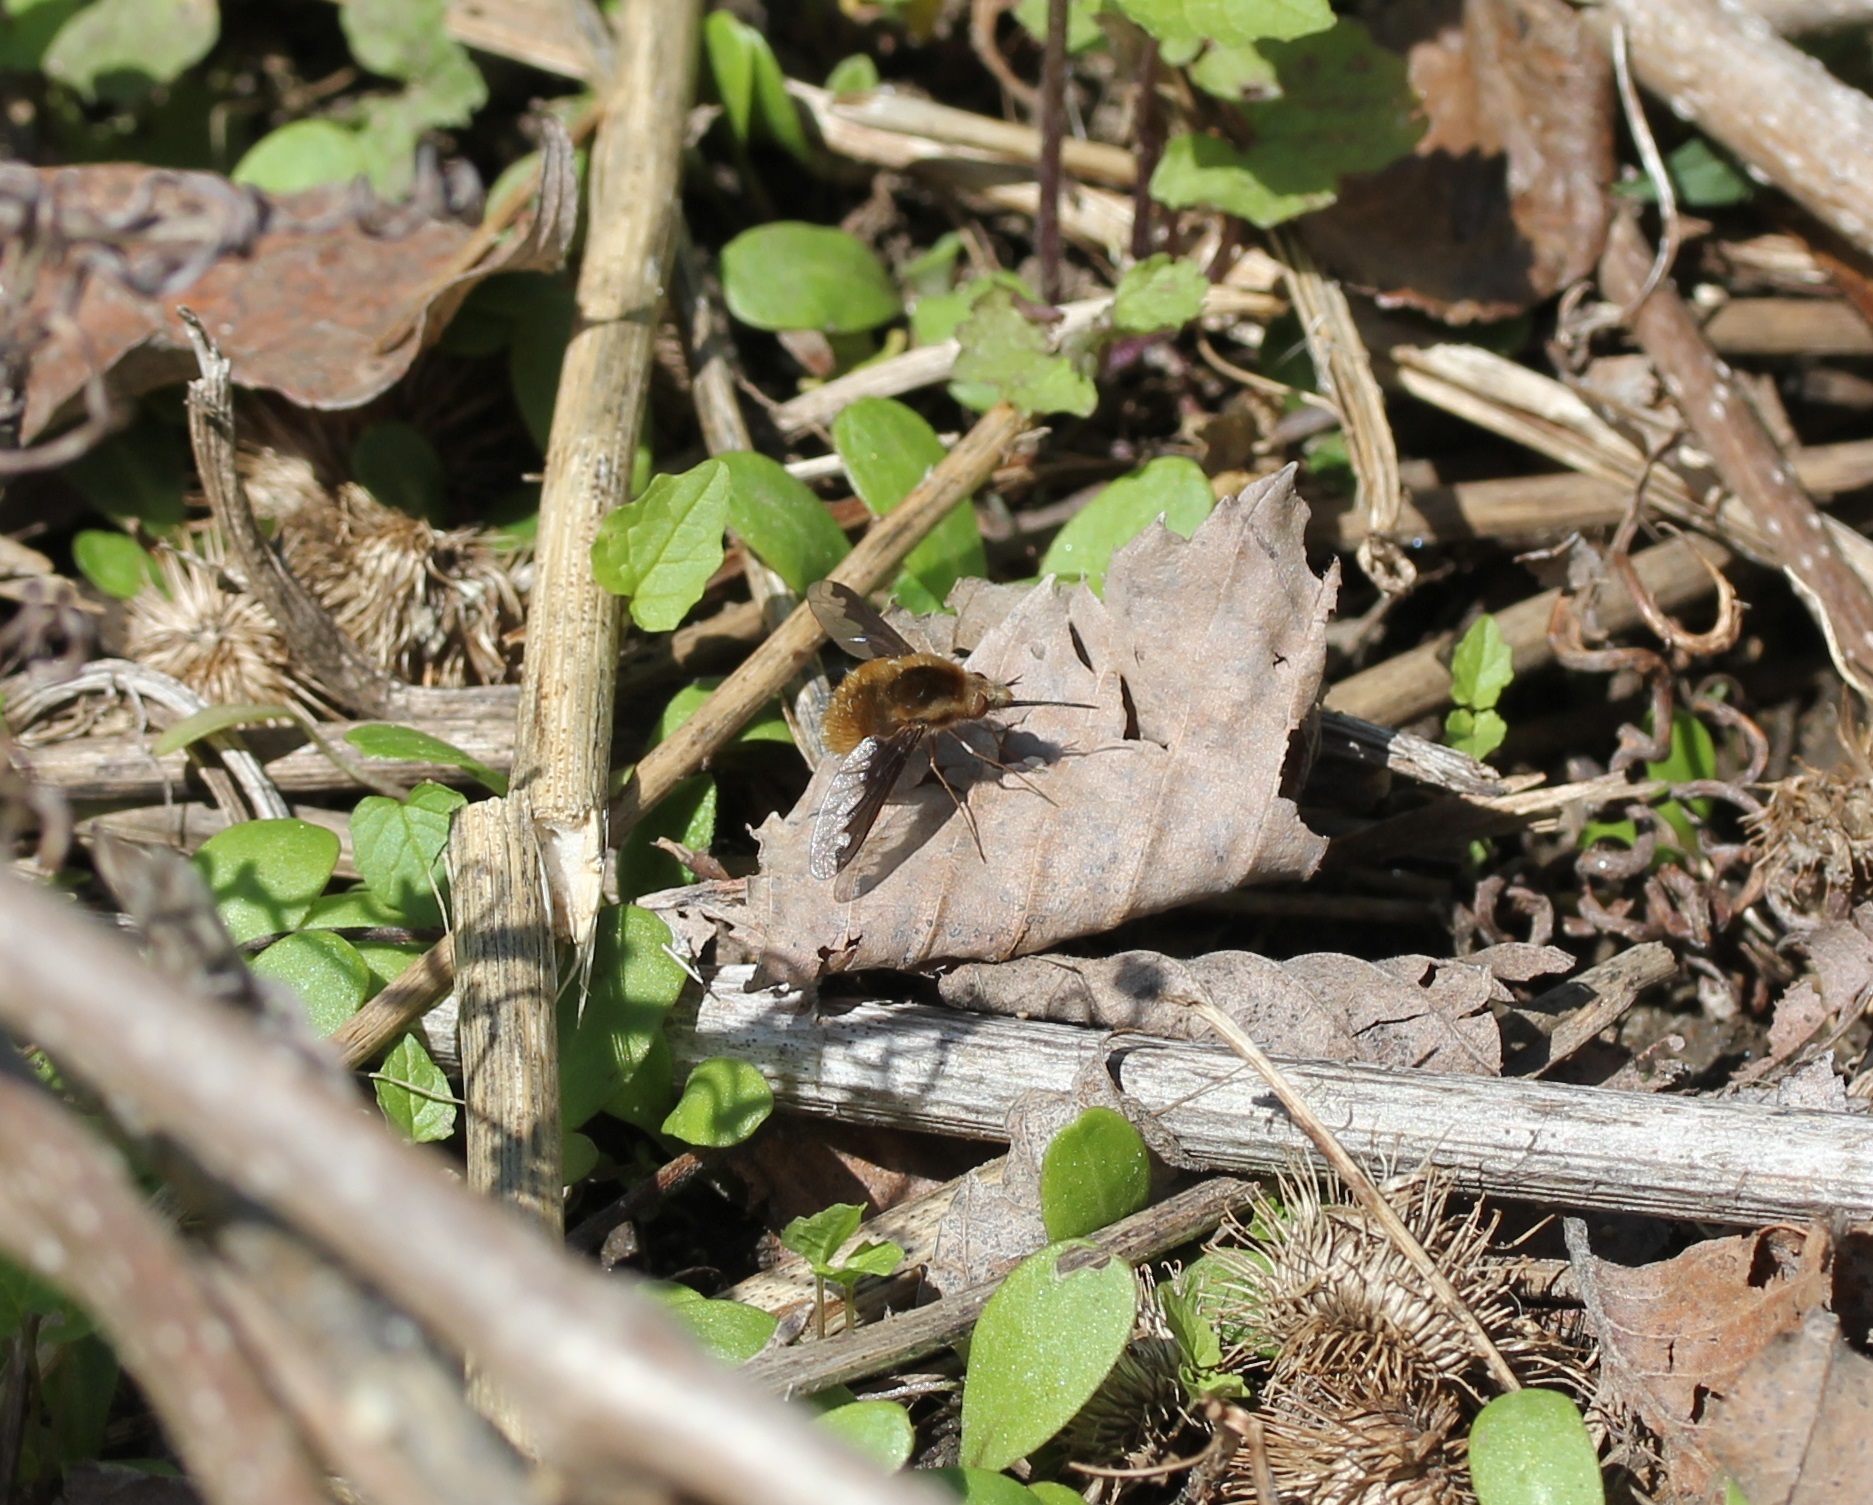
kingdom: Animalia
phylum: Arthropoda
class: Insecta
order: Diptera
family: Bombyliidae
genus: Bombylius
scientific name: Bombylius major
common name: Bee fly
